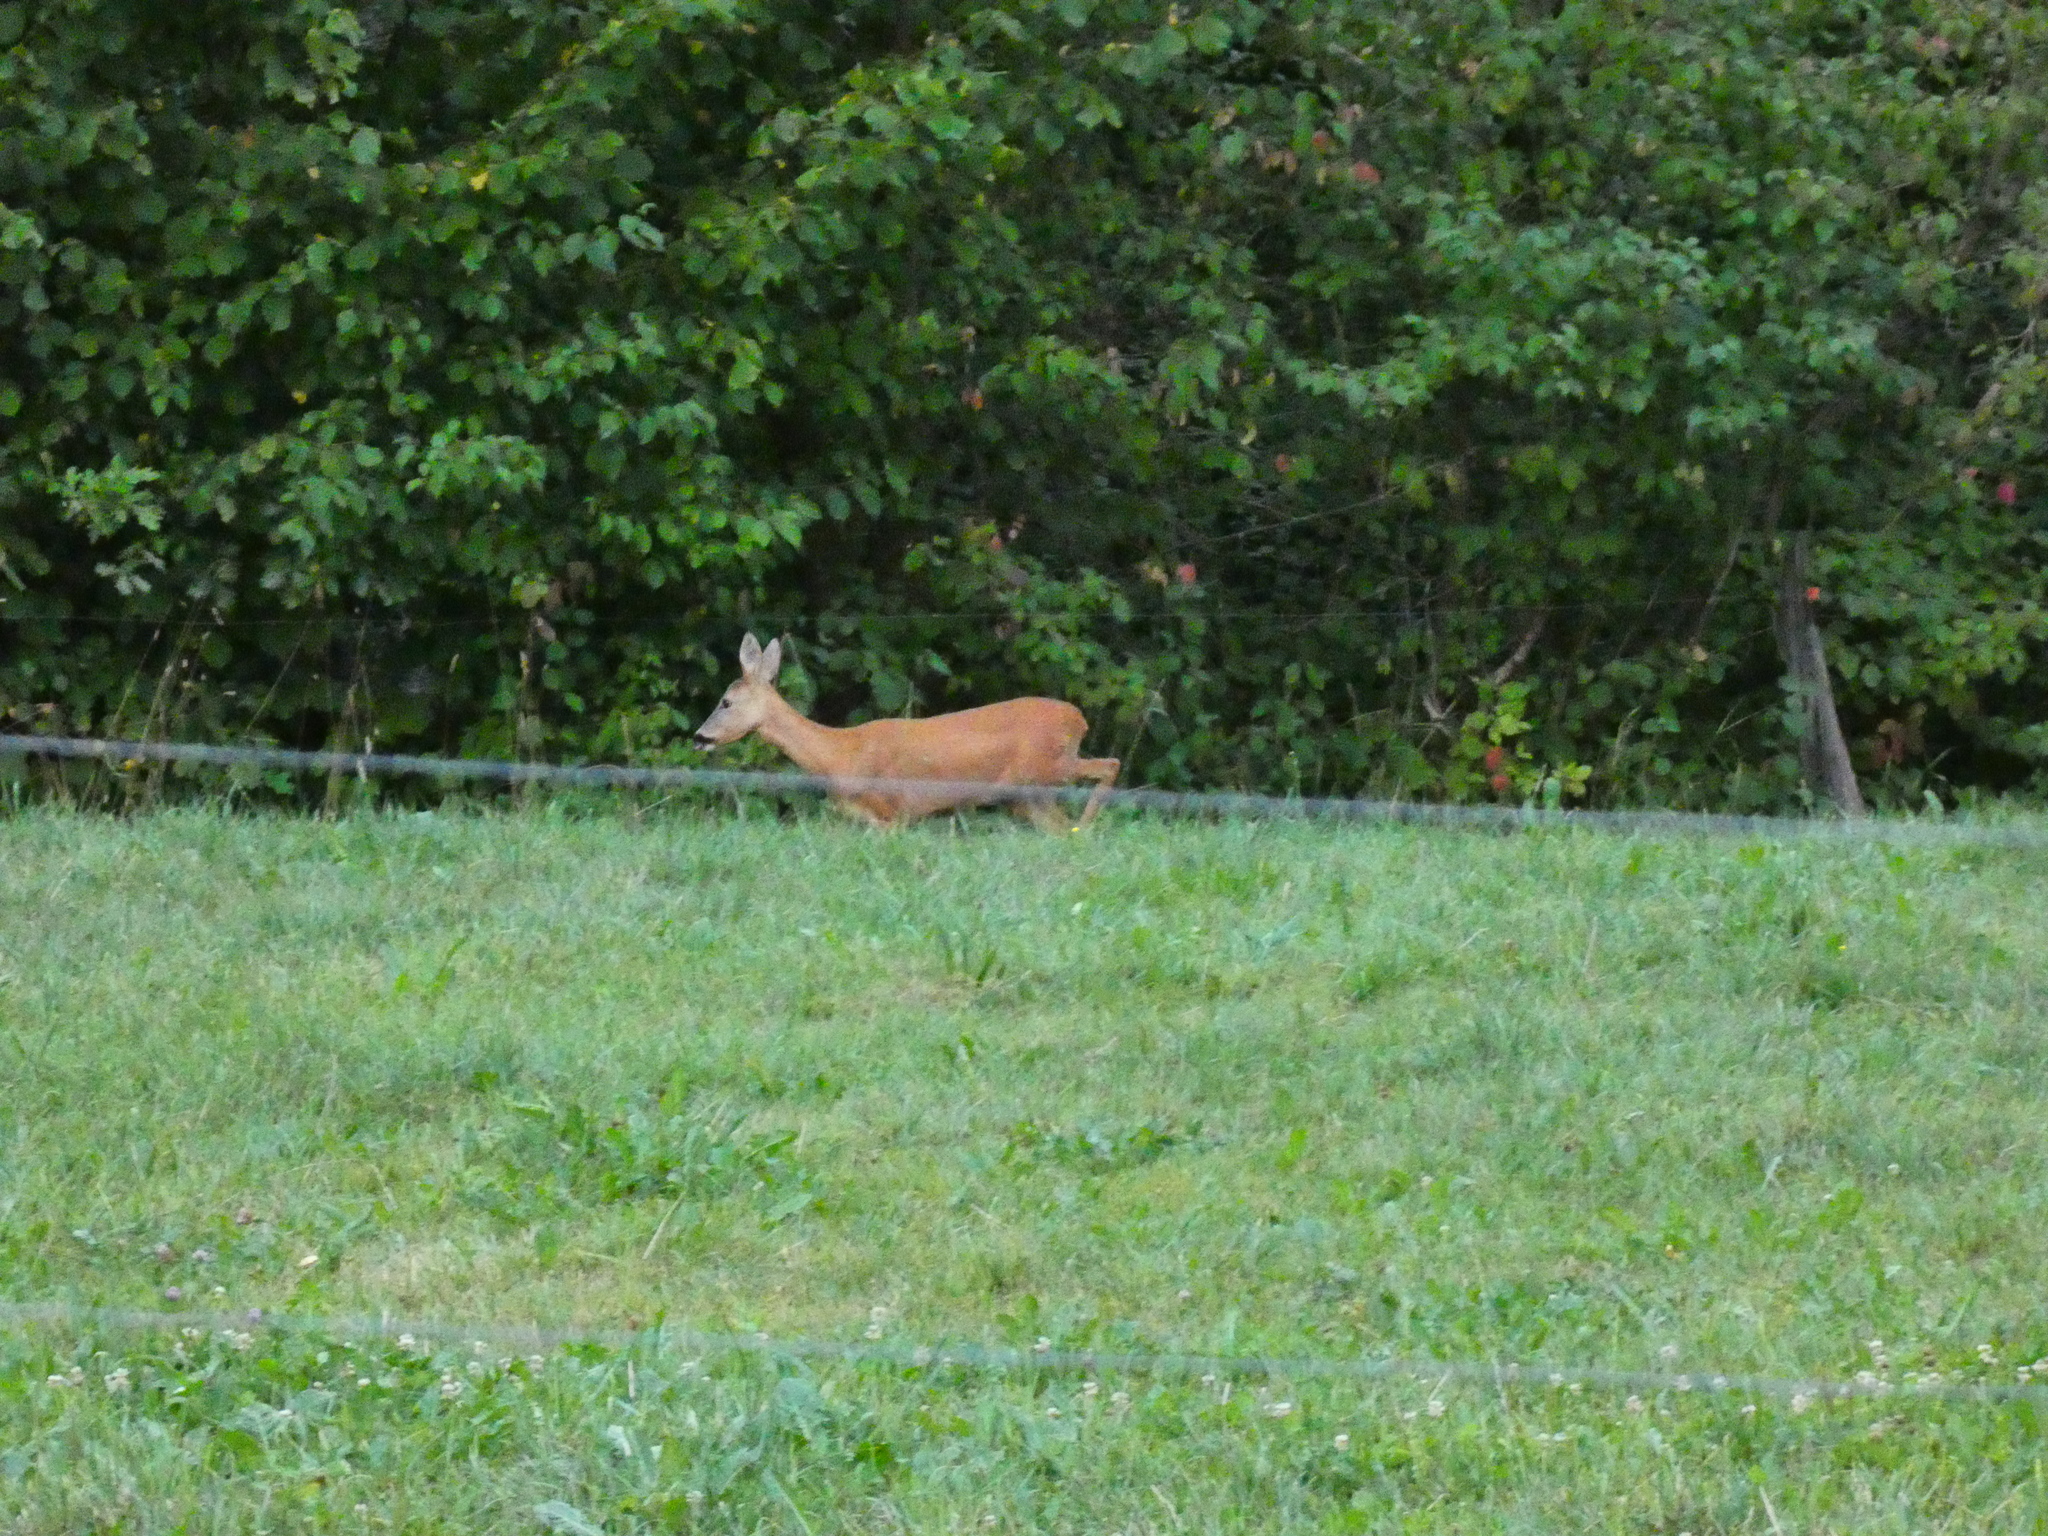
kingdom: Animalia
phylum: Chordata
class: Mammalia
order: Artiodactyla
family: Cervidae
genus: Capreolus
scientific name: Capreolus capreolus
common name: Western roe deer
